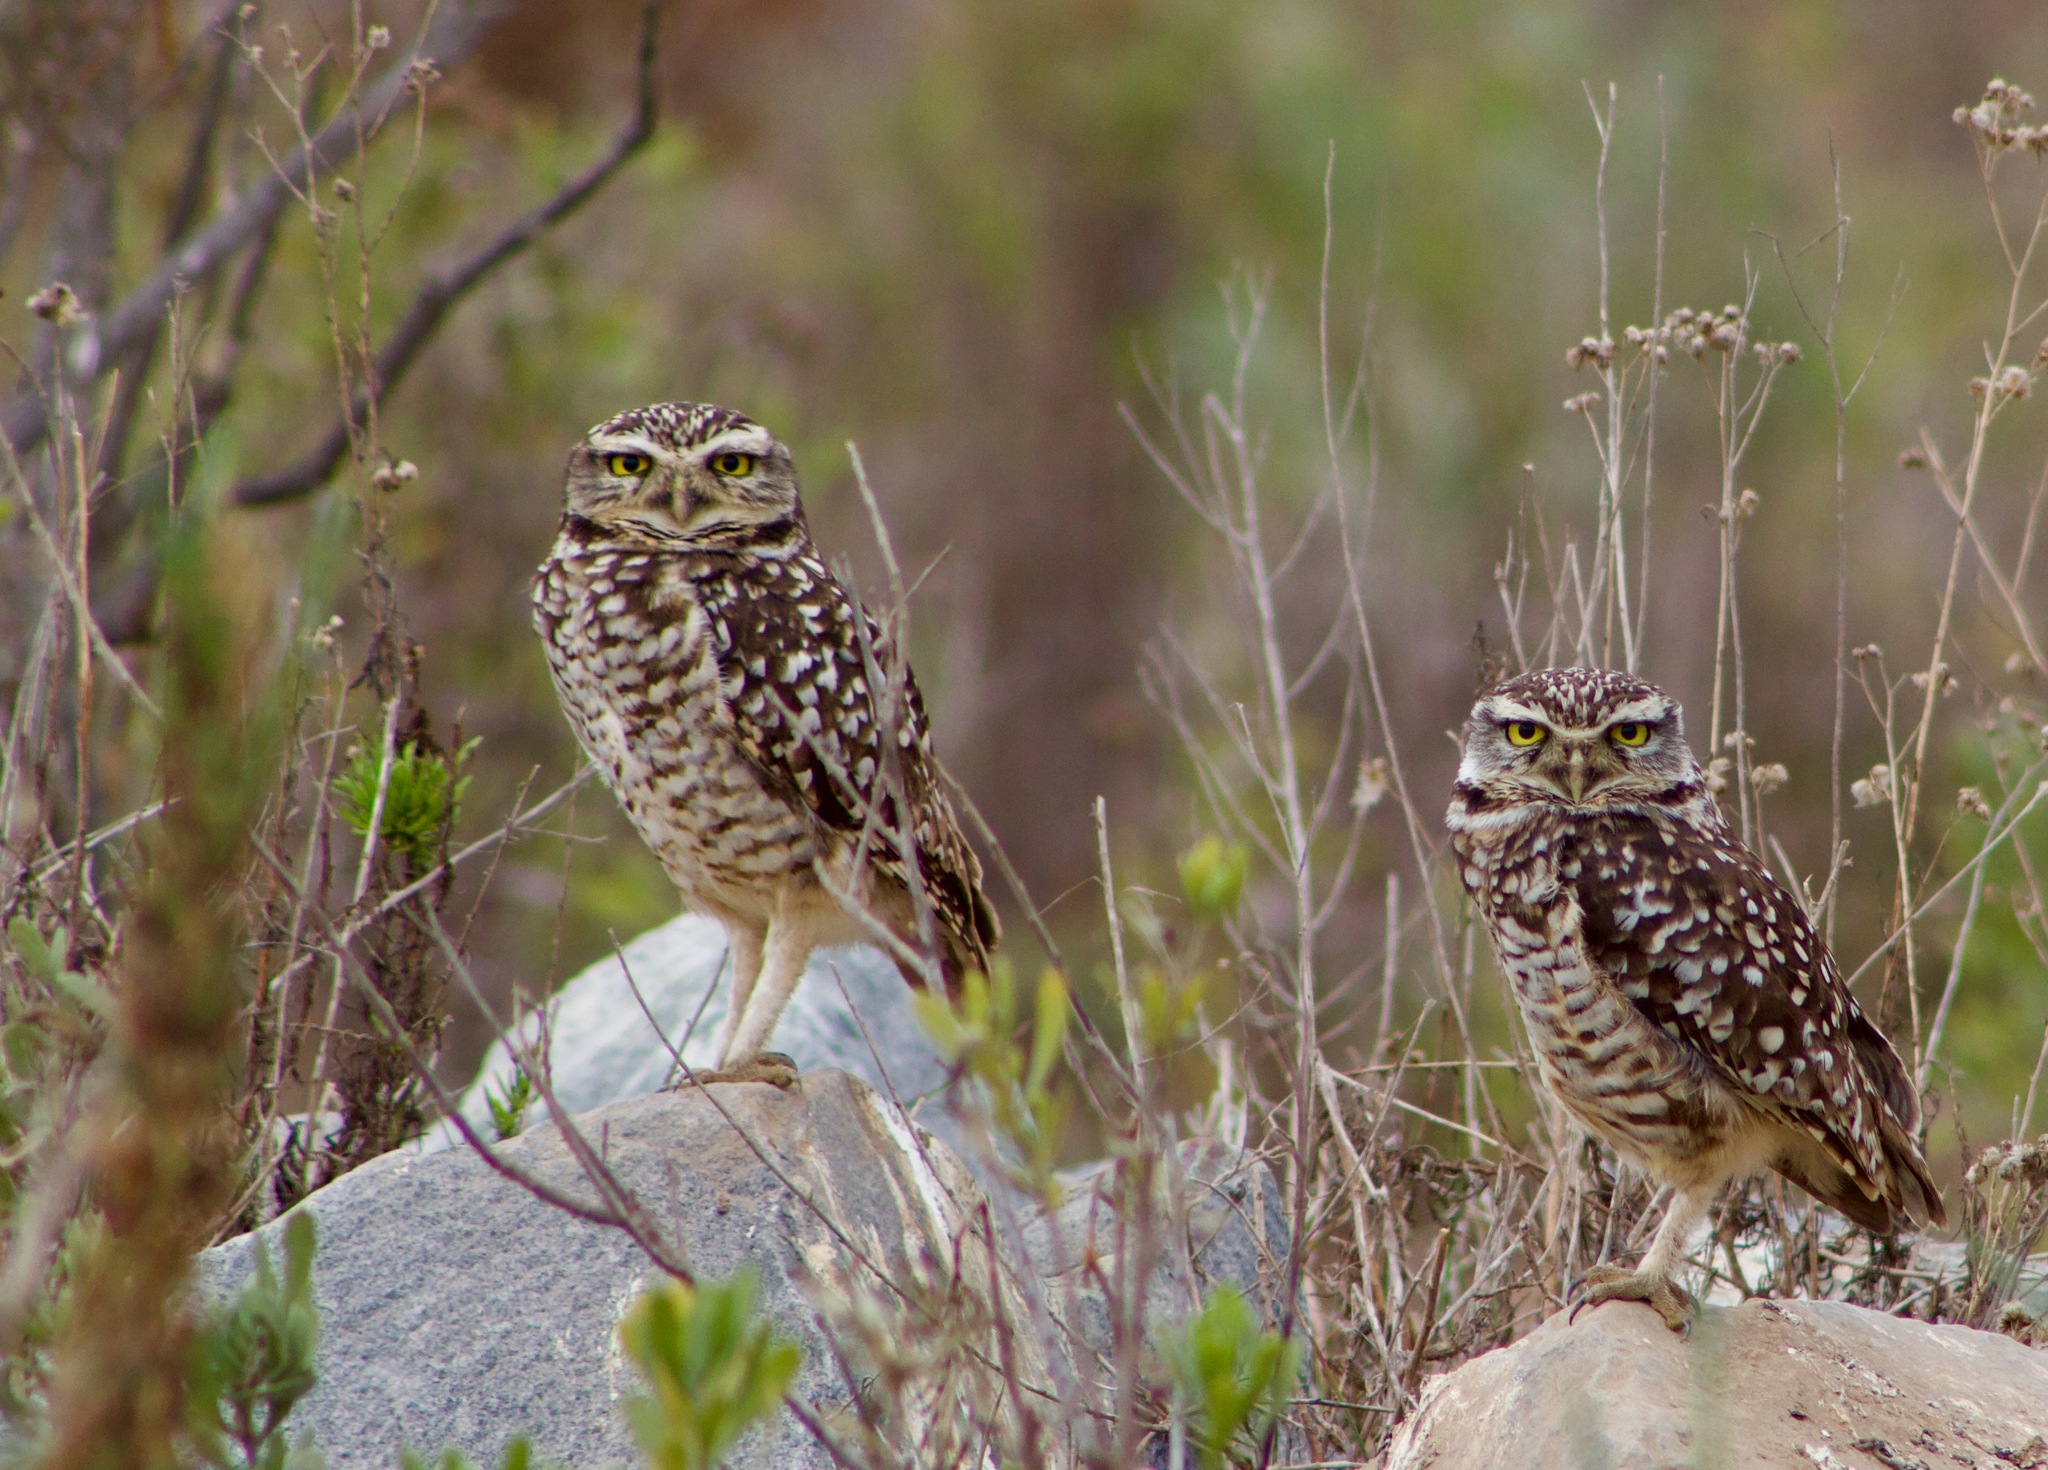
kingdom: Animalia
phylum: Chordata
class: Aves
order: Strigiformes
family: Strigidae
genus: Athene
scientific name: Athene cunicularia
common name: Burrowing owl
